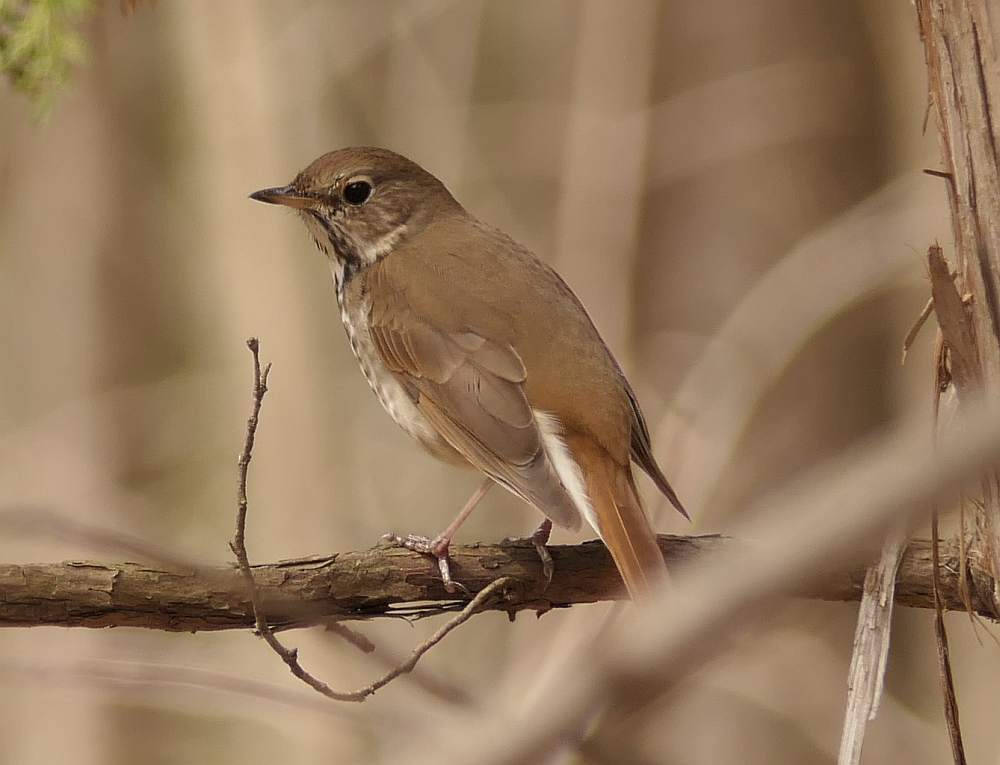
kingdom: Animalia
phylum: Chordata
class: Aves
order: Passeriformes
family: Turdidae
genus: Catharus
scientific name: Catharus guttatus
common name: Hermit thrush
